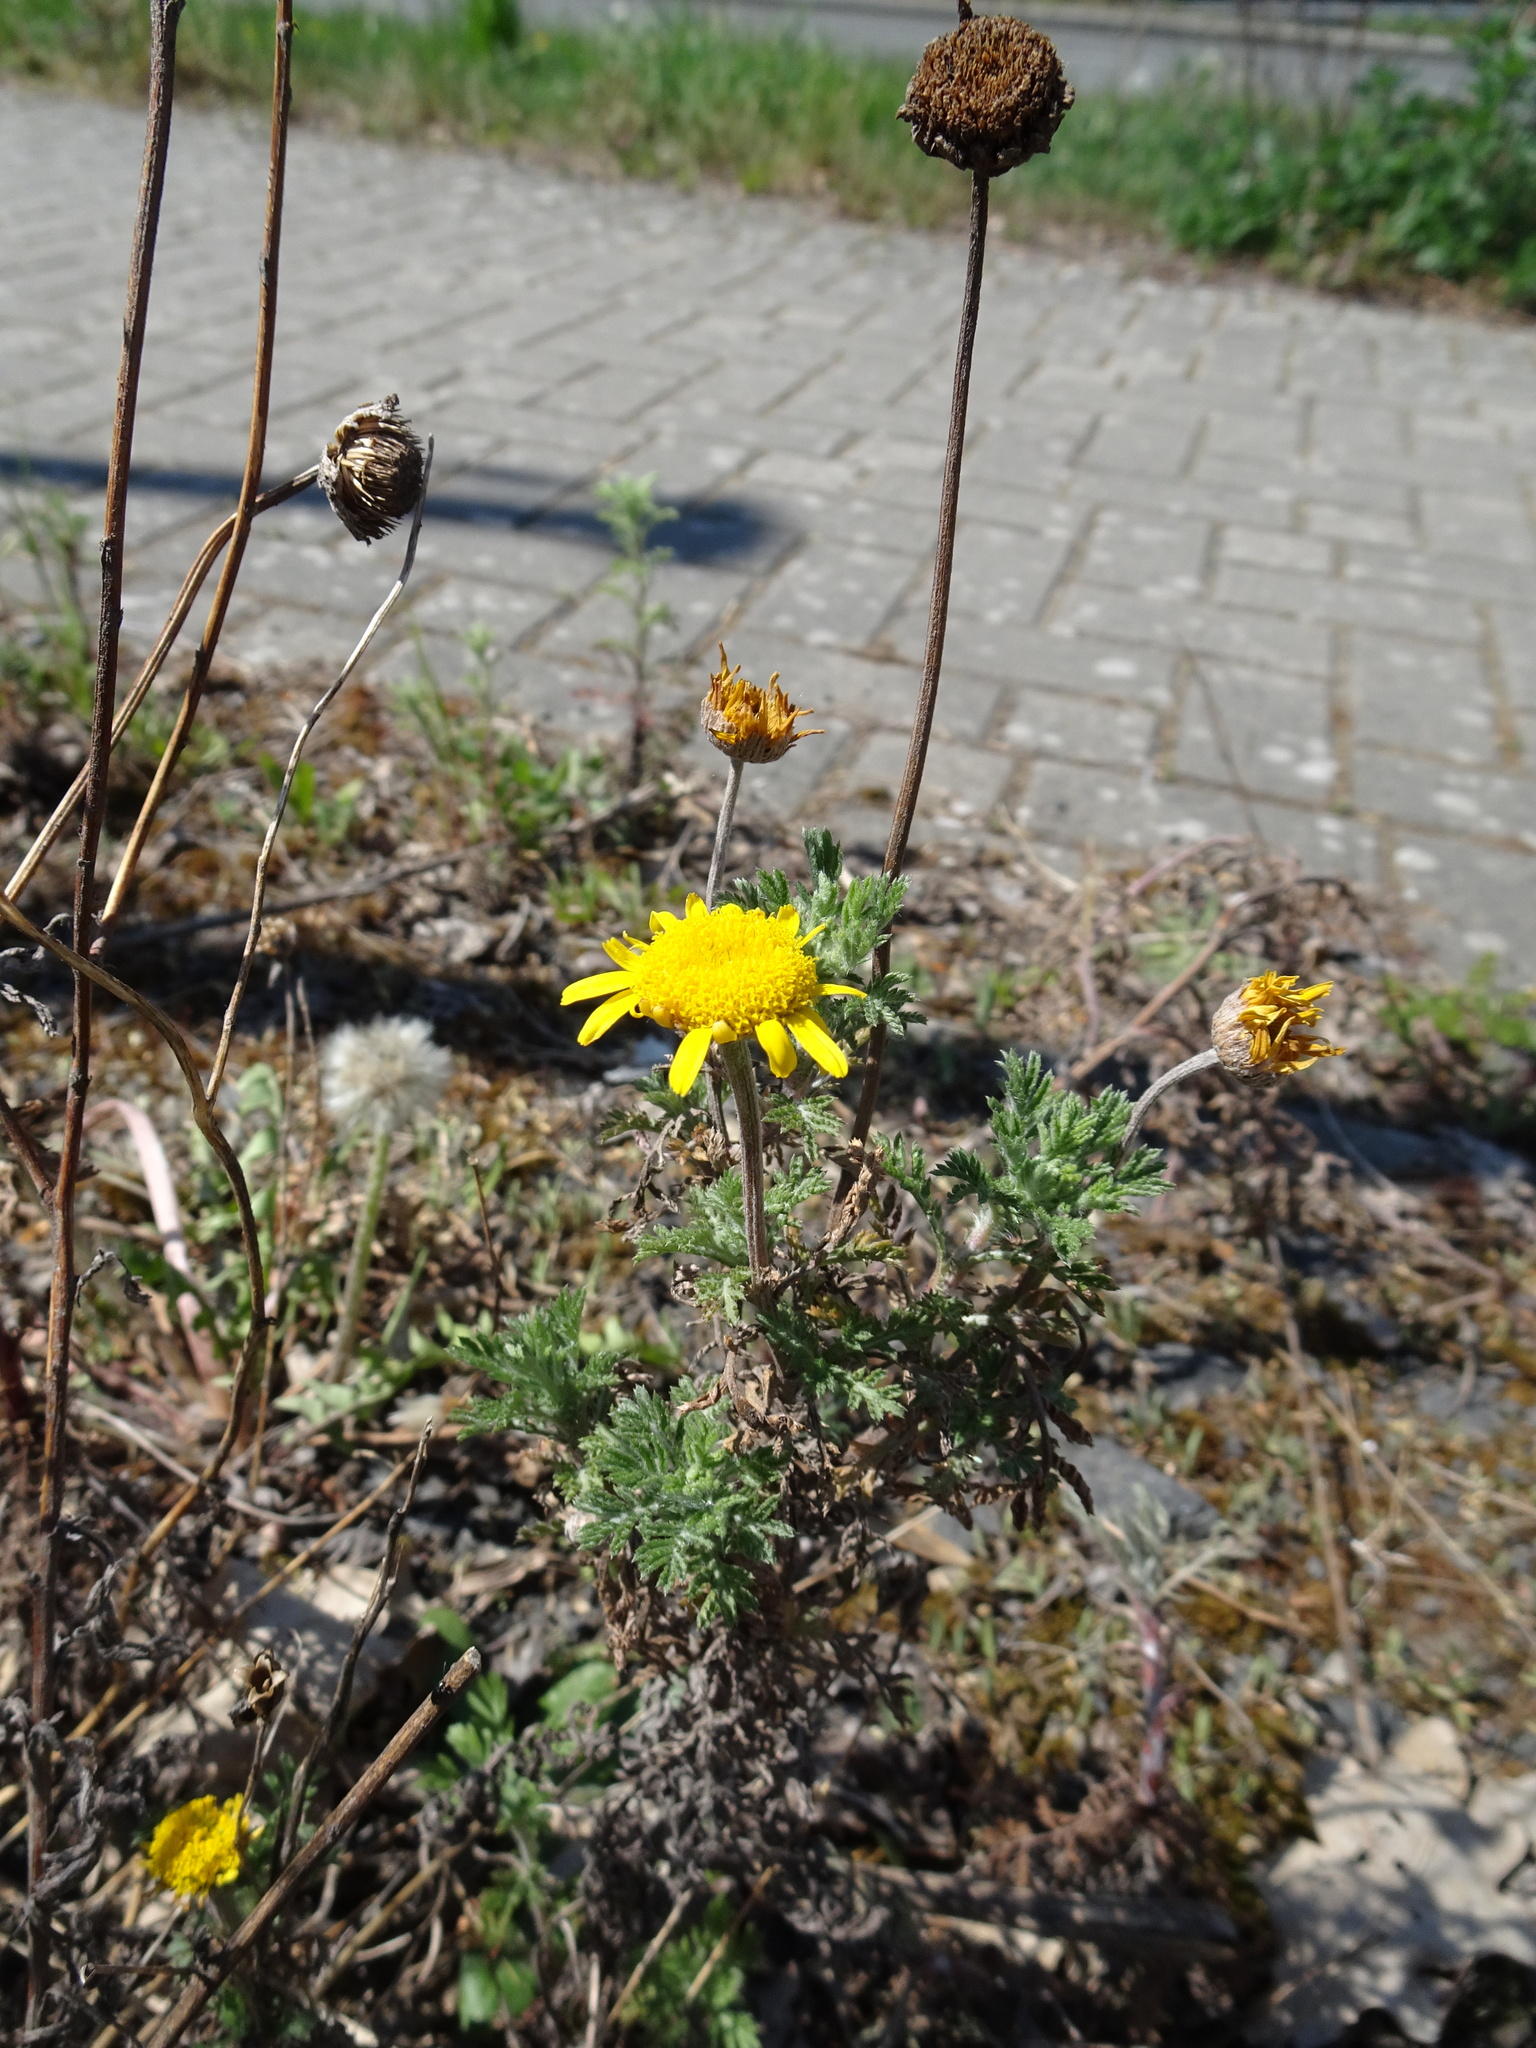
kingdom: Plantae
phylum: Tracheophyta
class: Magnoliopsida
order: Asterales
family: Asteraceae
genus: Cota
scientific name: Cota tinctoria
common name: Golden chamomile
